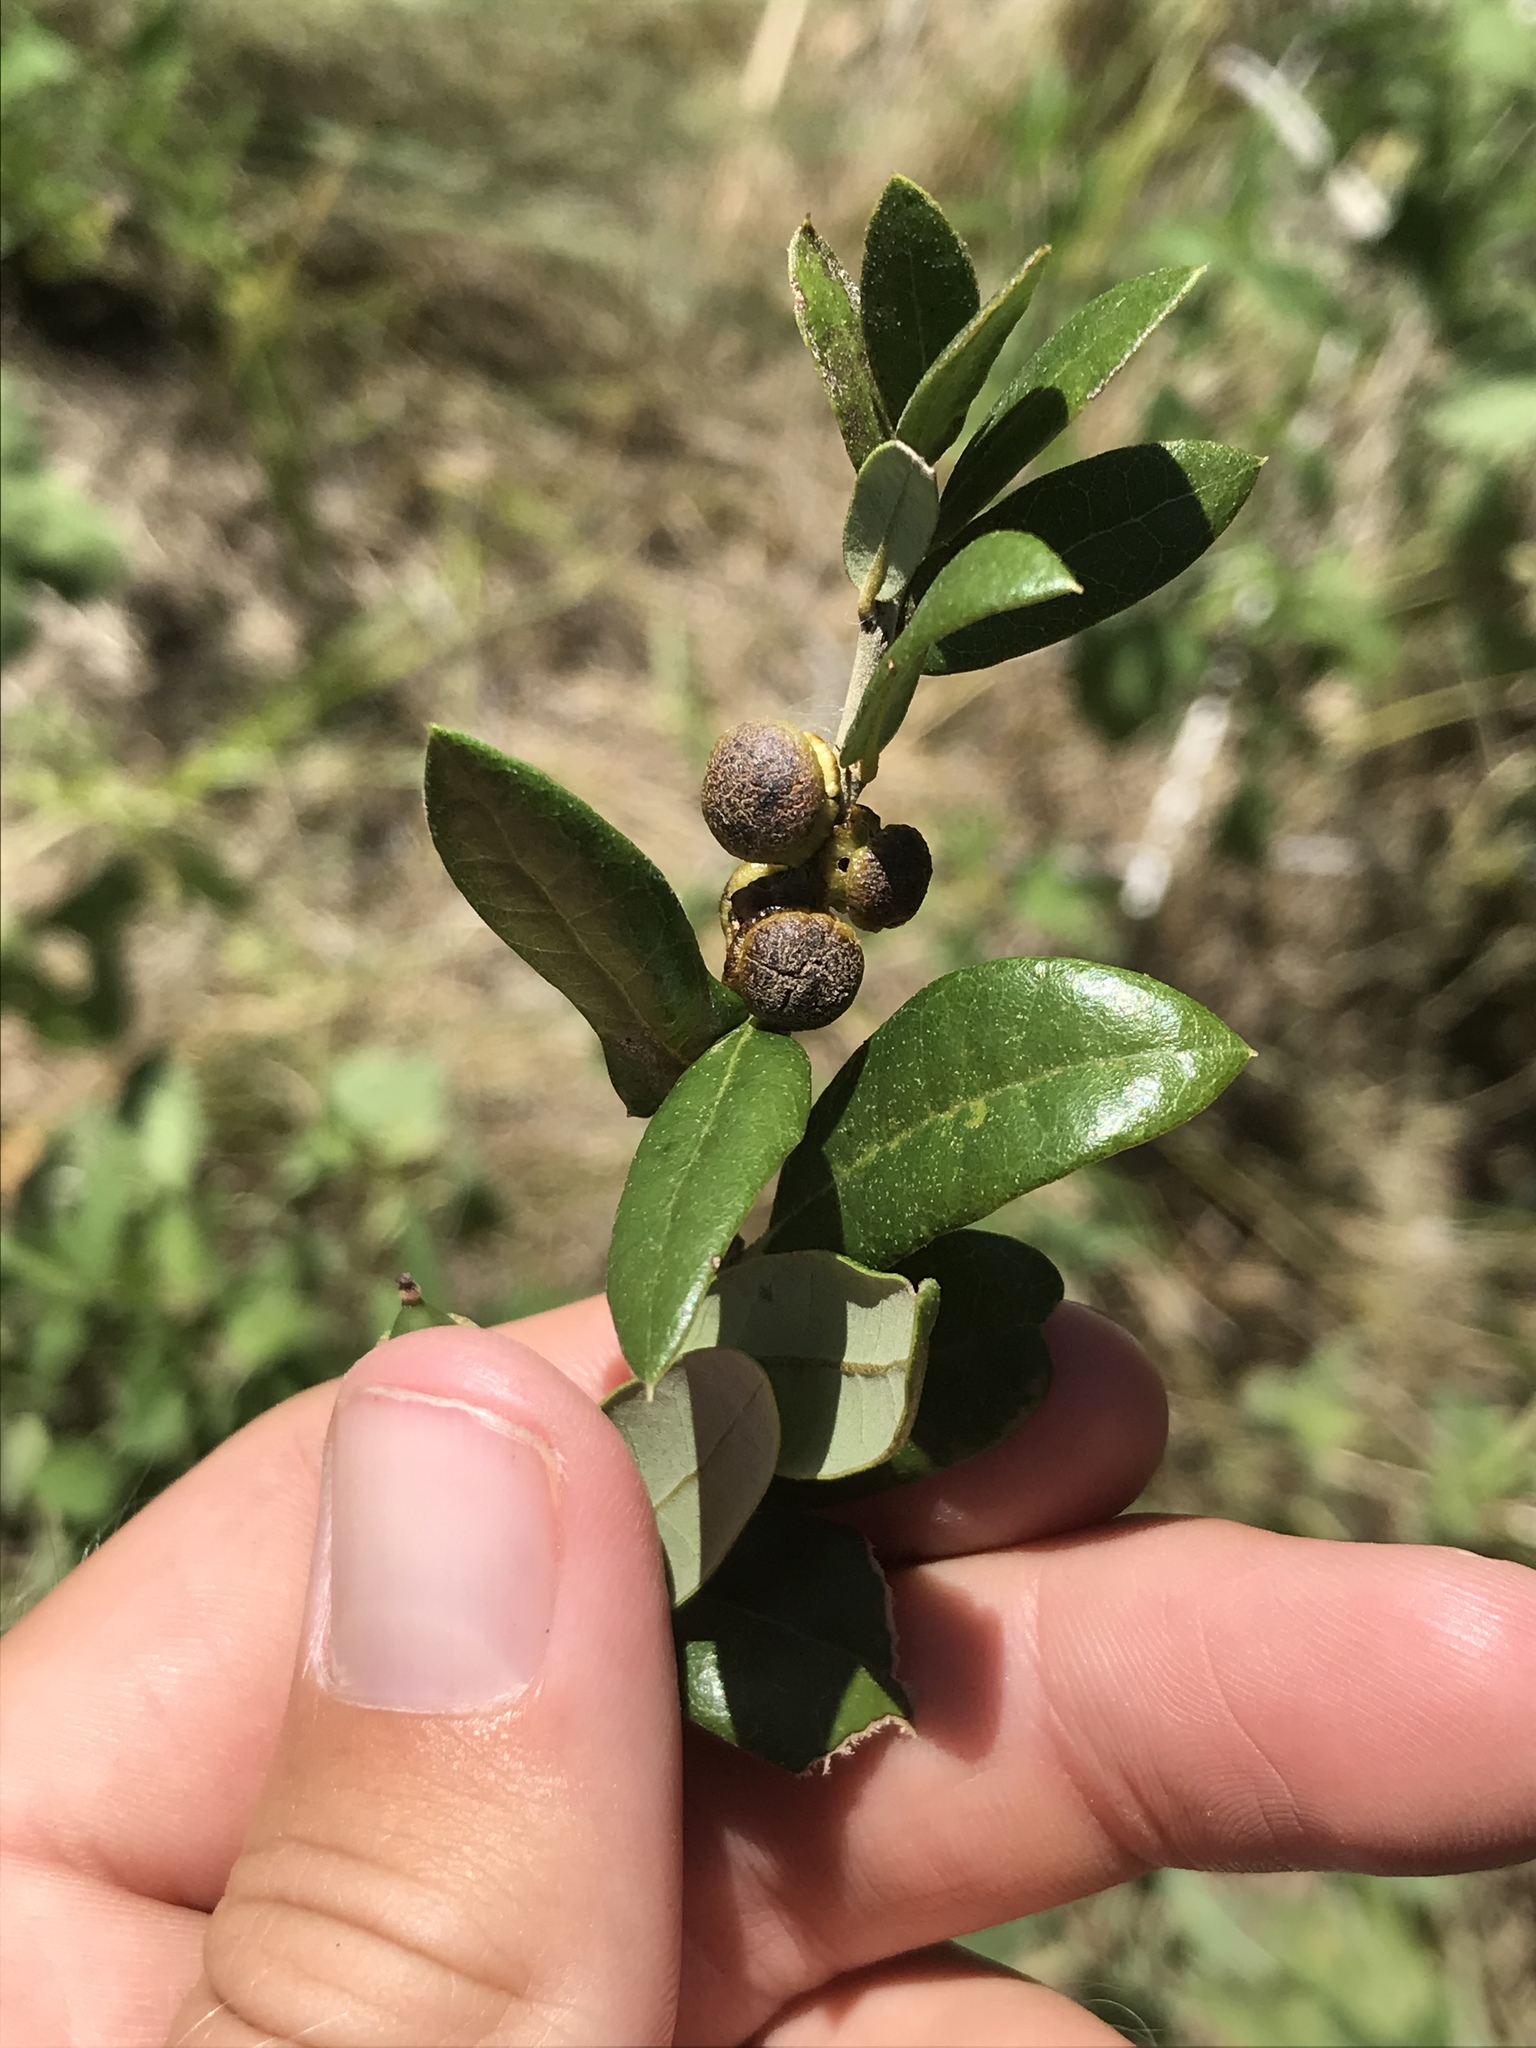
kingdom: Animalia
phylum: Arthropoda
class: Insecta
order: Hymenoptera
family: Cynipidae
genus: Disholcaspis
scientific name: Disholcaspis
